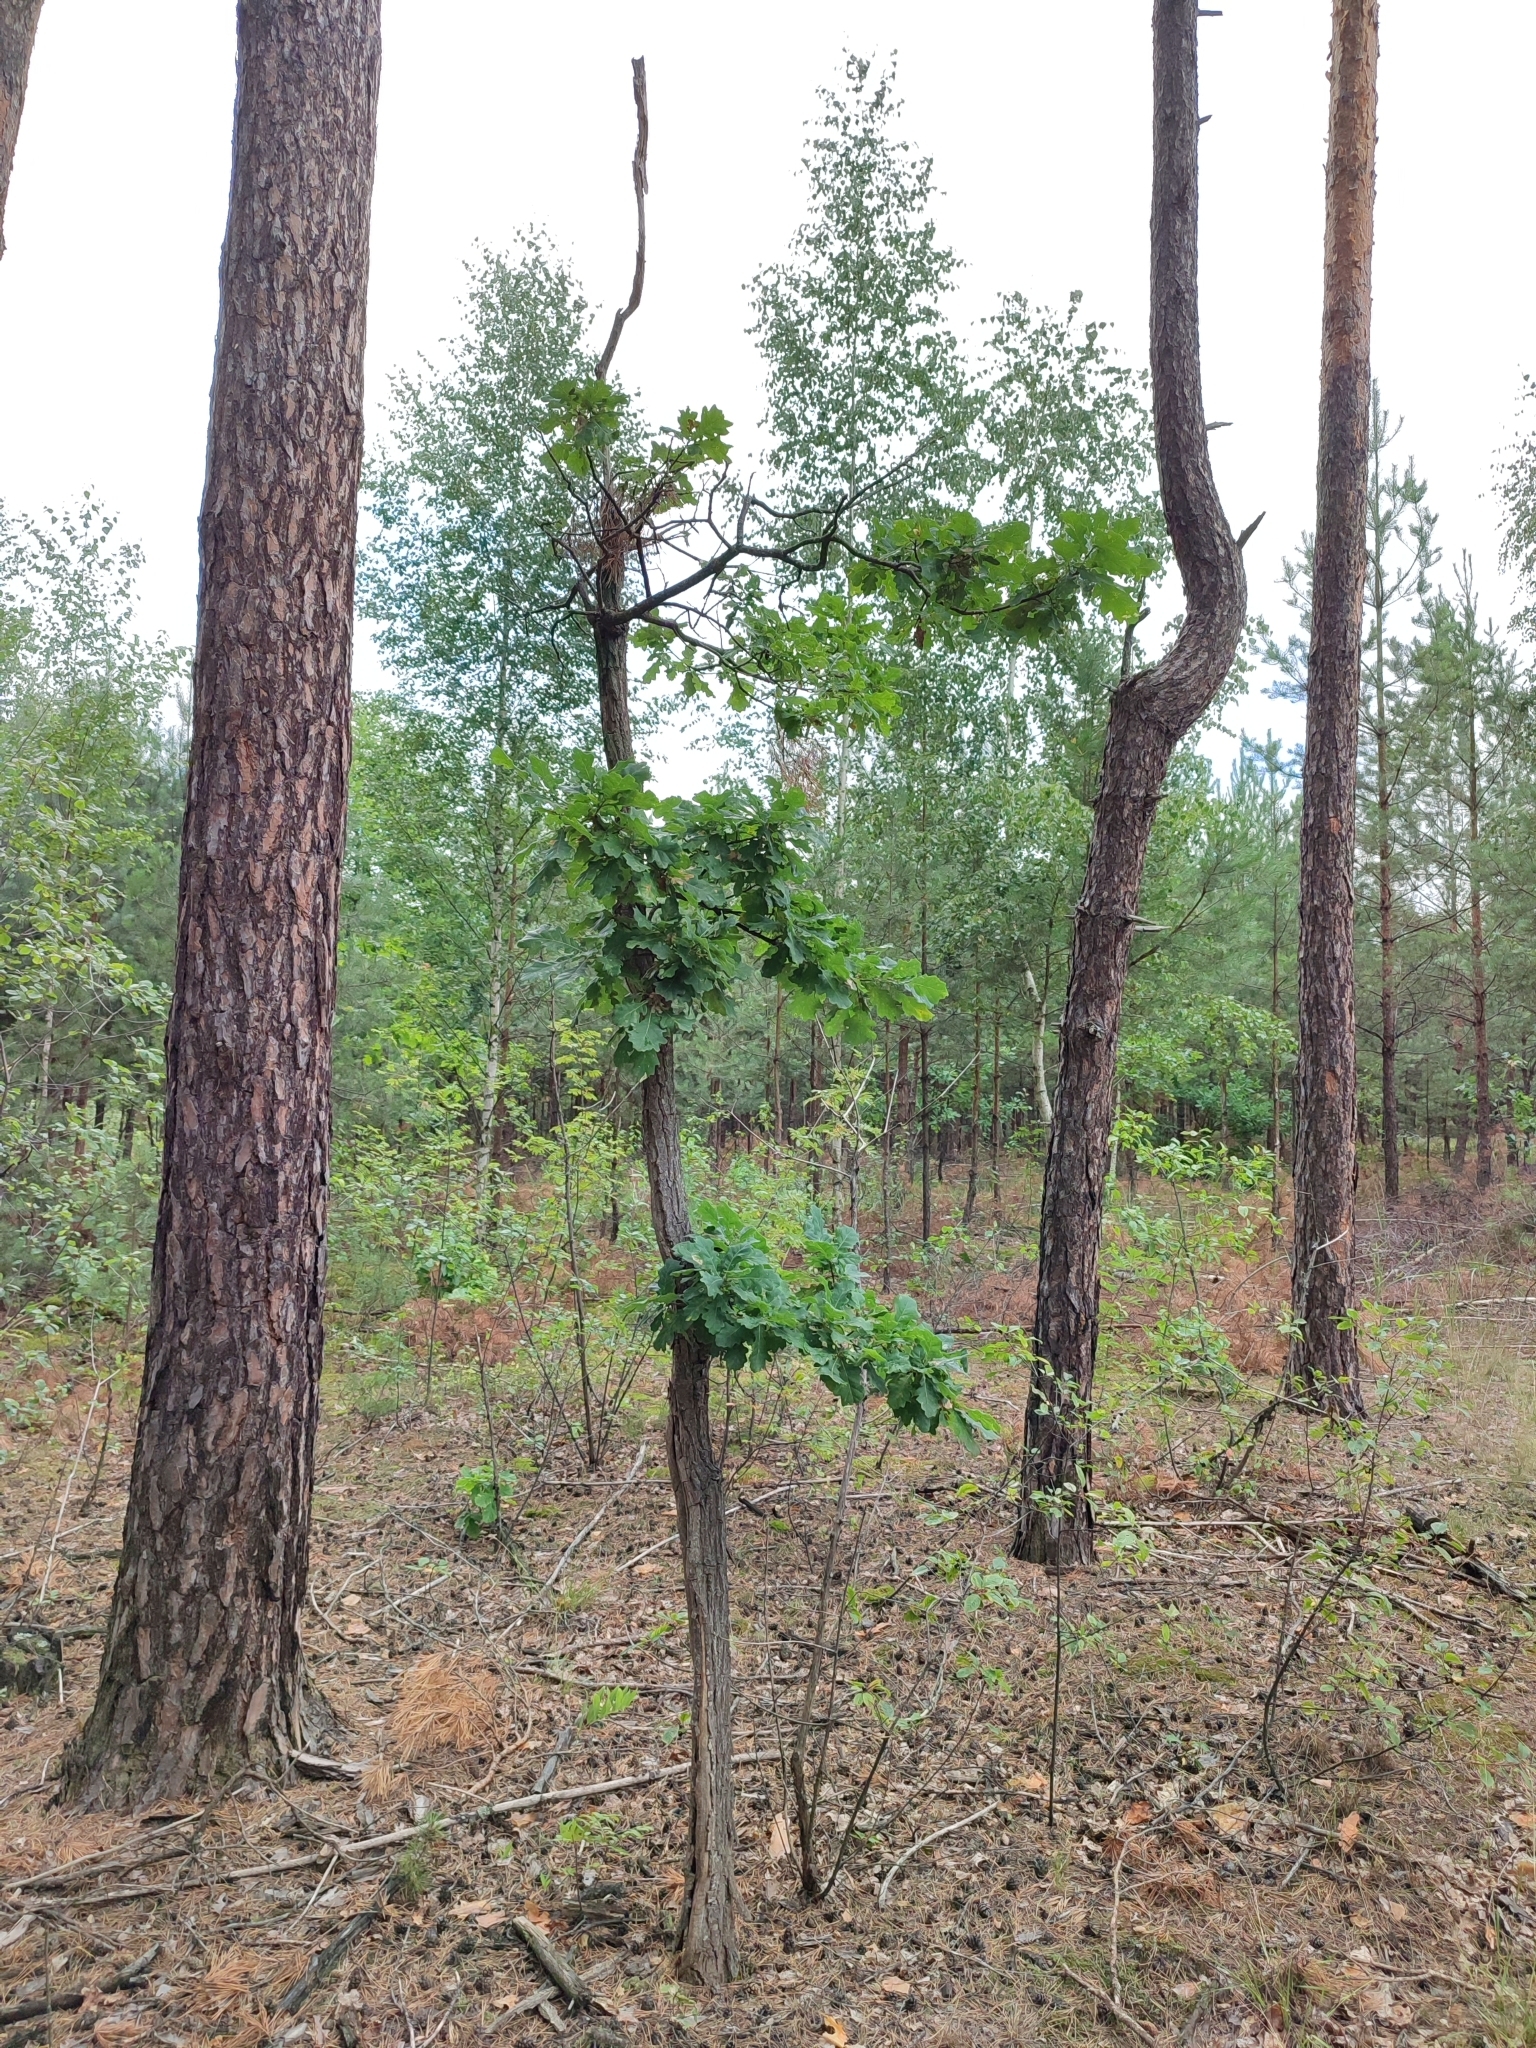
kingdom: Plantae
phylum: Tracheophyta
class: Magnoliopsida
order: Fagales
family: Fagaceae
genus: Quercus
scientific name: Quercus robur
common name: Pedunculate oak
